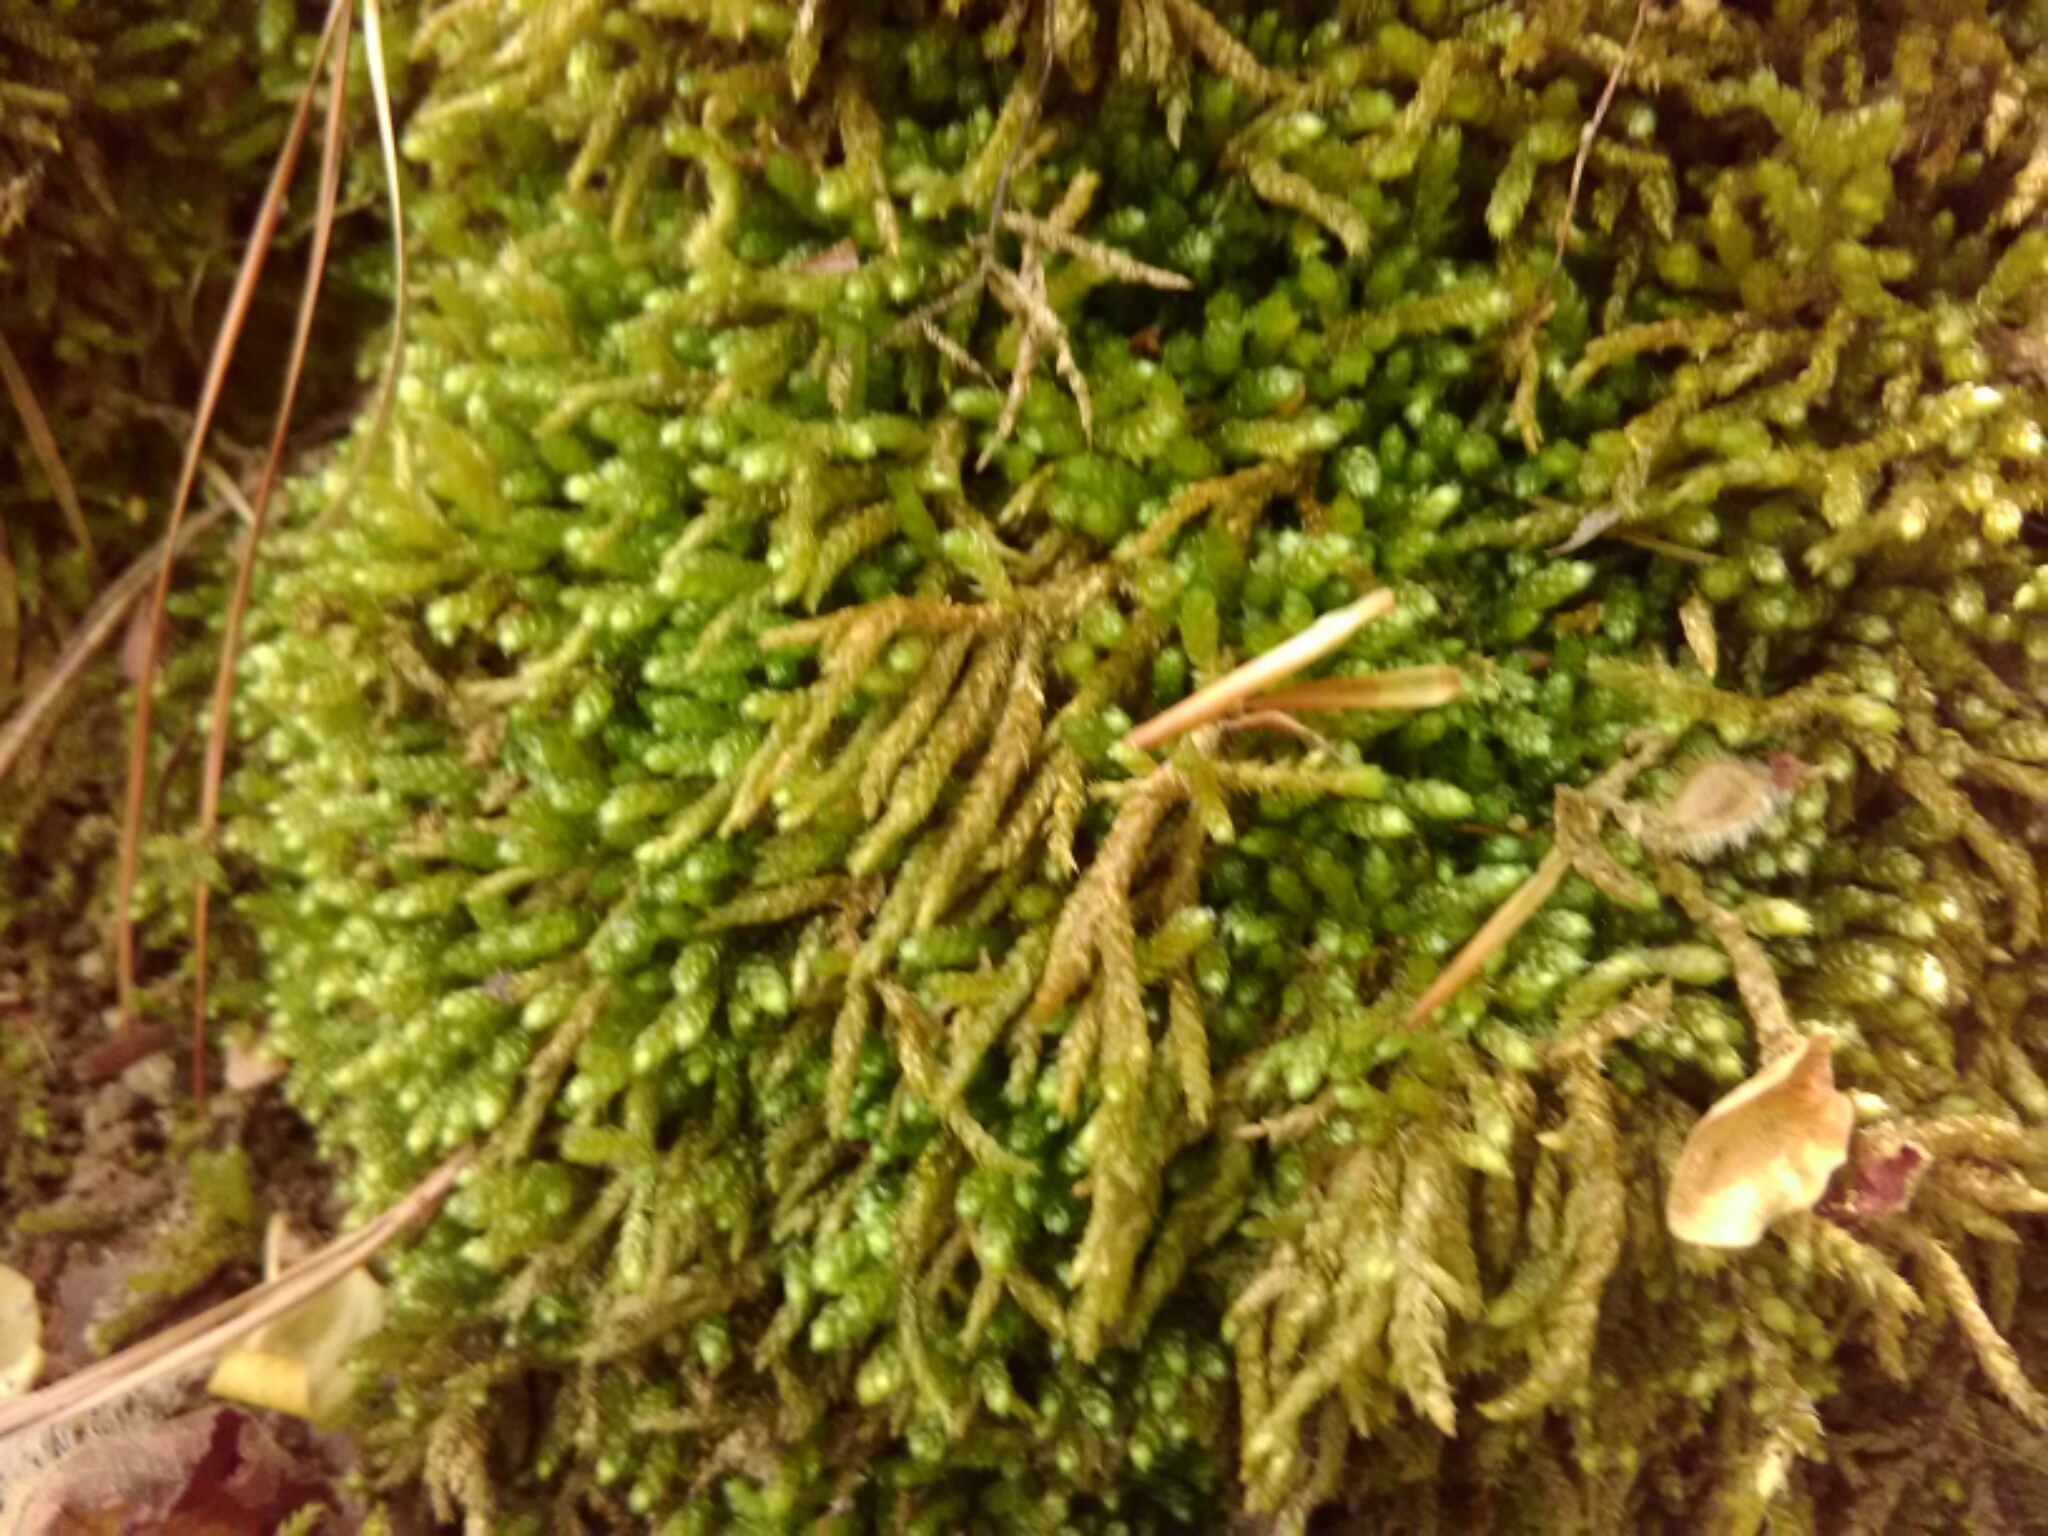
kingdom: Plantae
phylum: Bryophyta
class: Bryopsida
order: Hypnales
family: Brachytheciaceae
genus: Bryoandersonia
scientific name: Bryoandersonia illecebra
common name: Spoon-leaved moss
